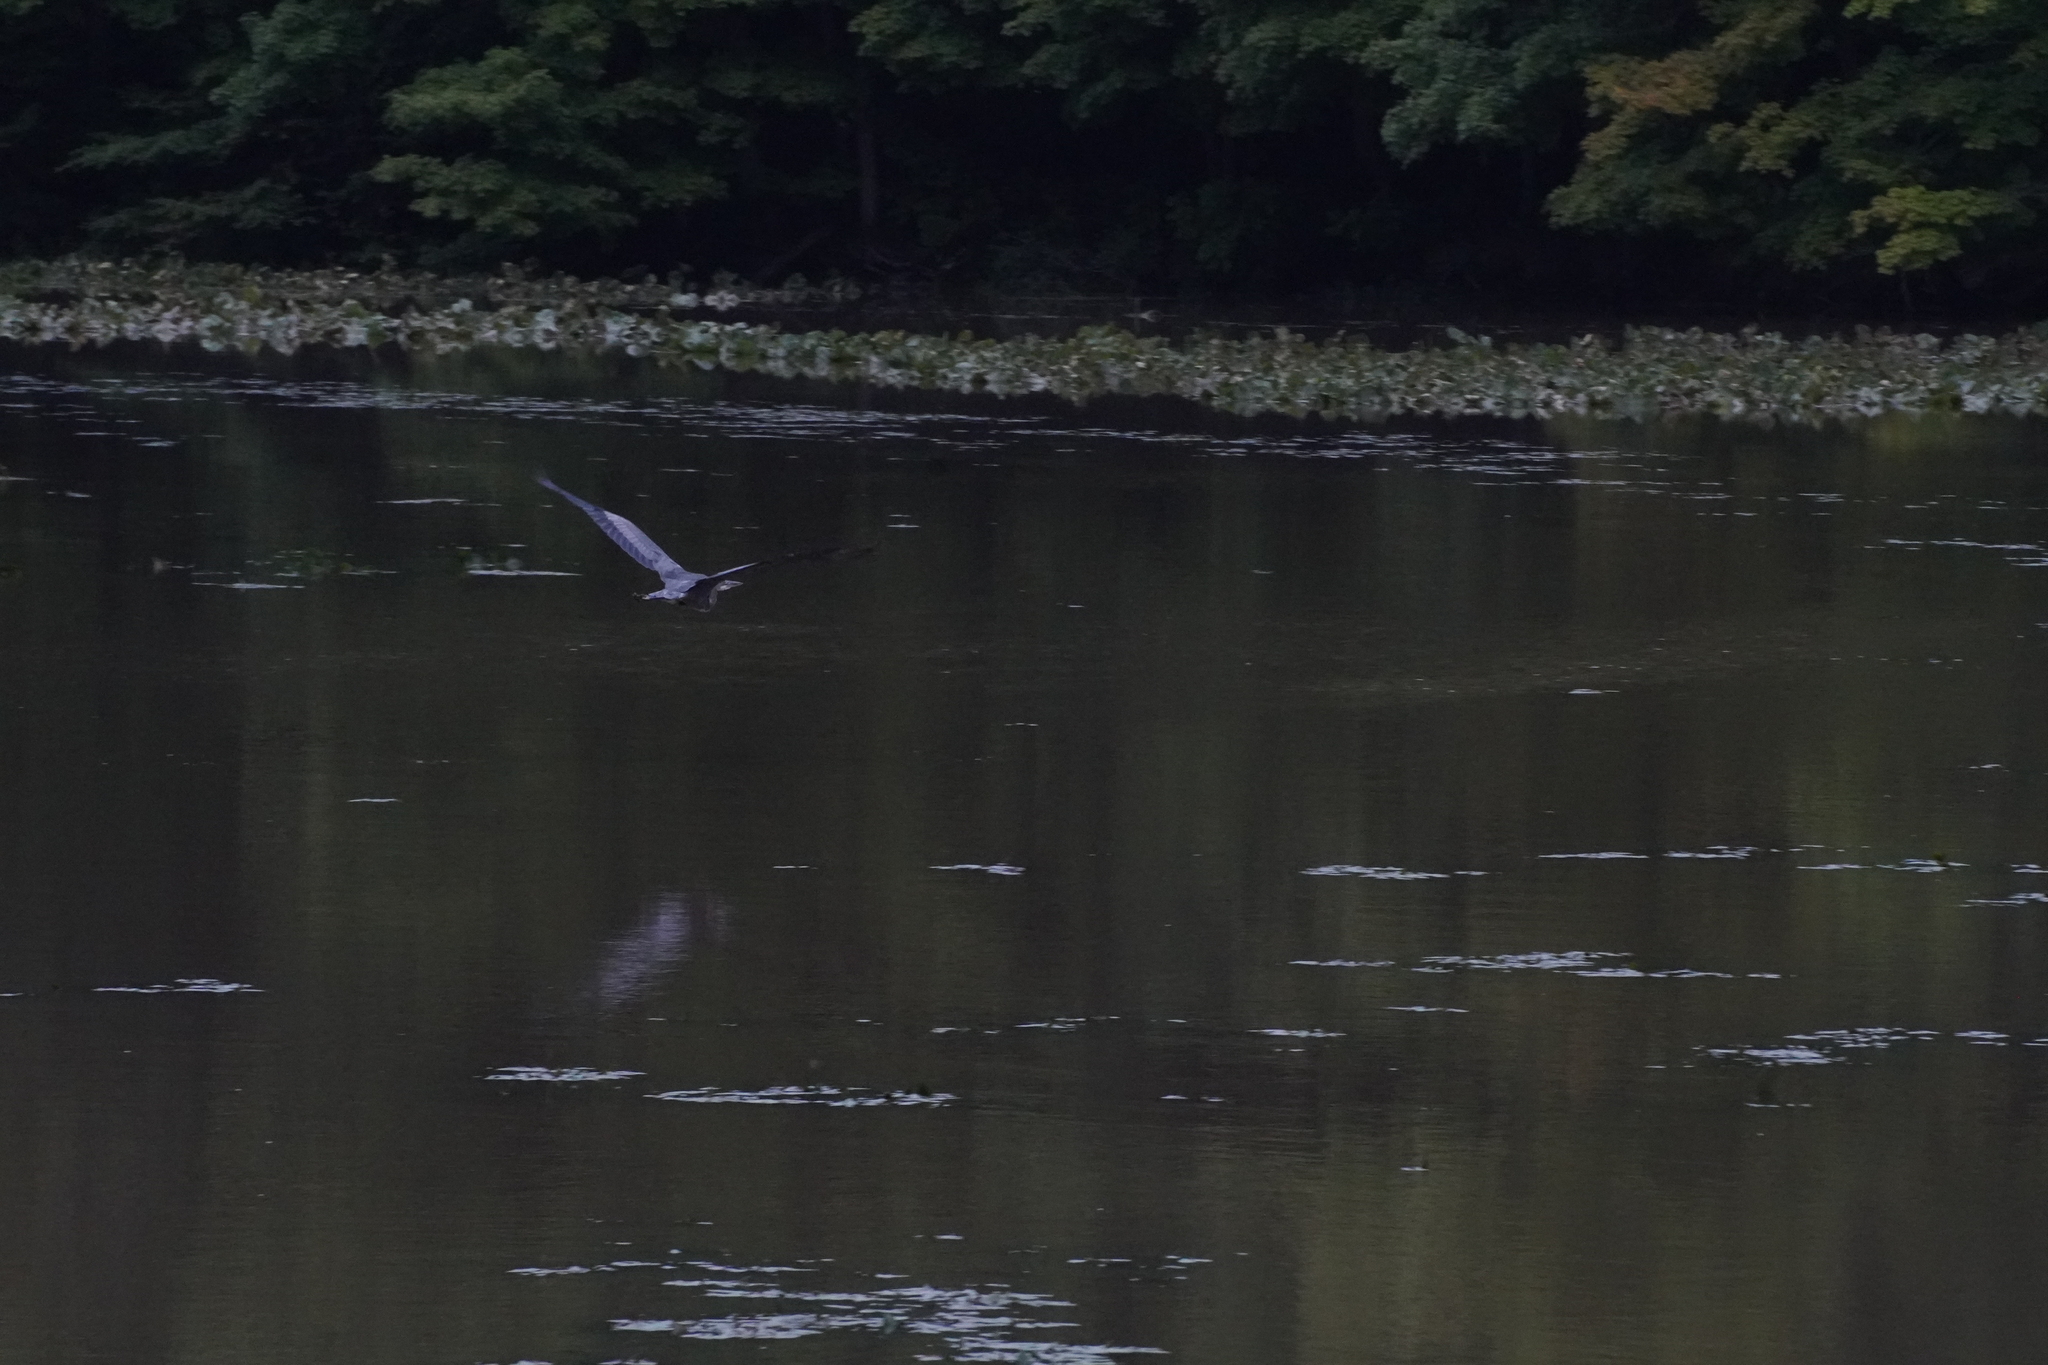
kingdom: Animalia
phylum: Chordata
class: Aves
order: Pelecaniformes
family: Ardeidae
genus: Ardea
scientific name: Ardea herodias
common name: Great blue heron
